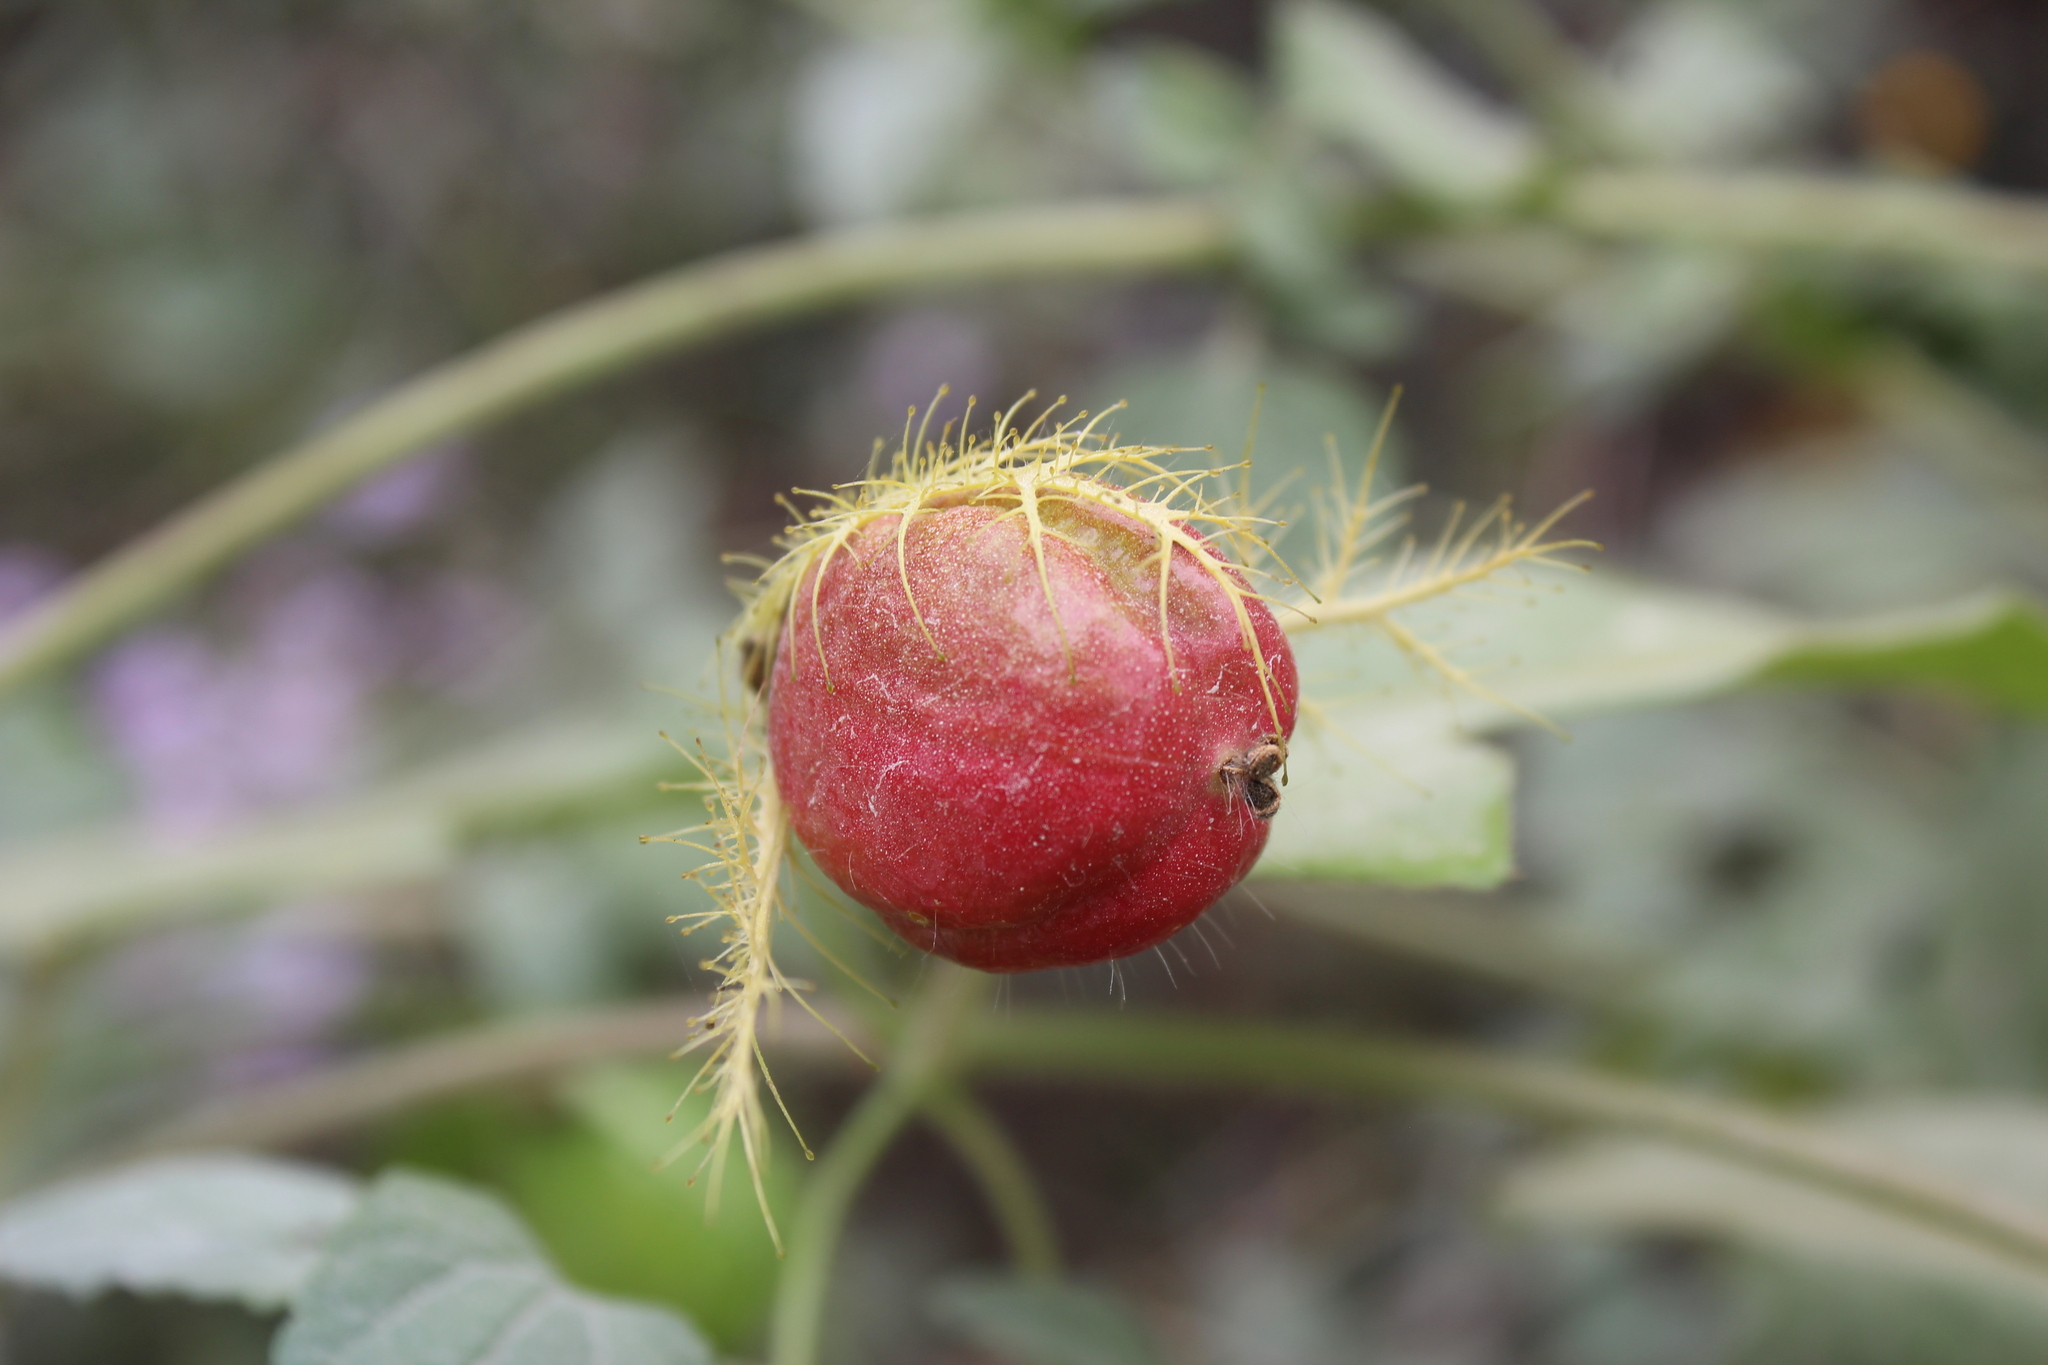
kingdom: Plantae
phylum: Tracheophyta
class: Magnoliopsida
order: Malpighiales
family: Passifloraceae
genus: Passiflora
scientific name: Passiflora
